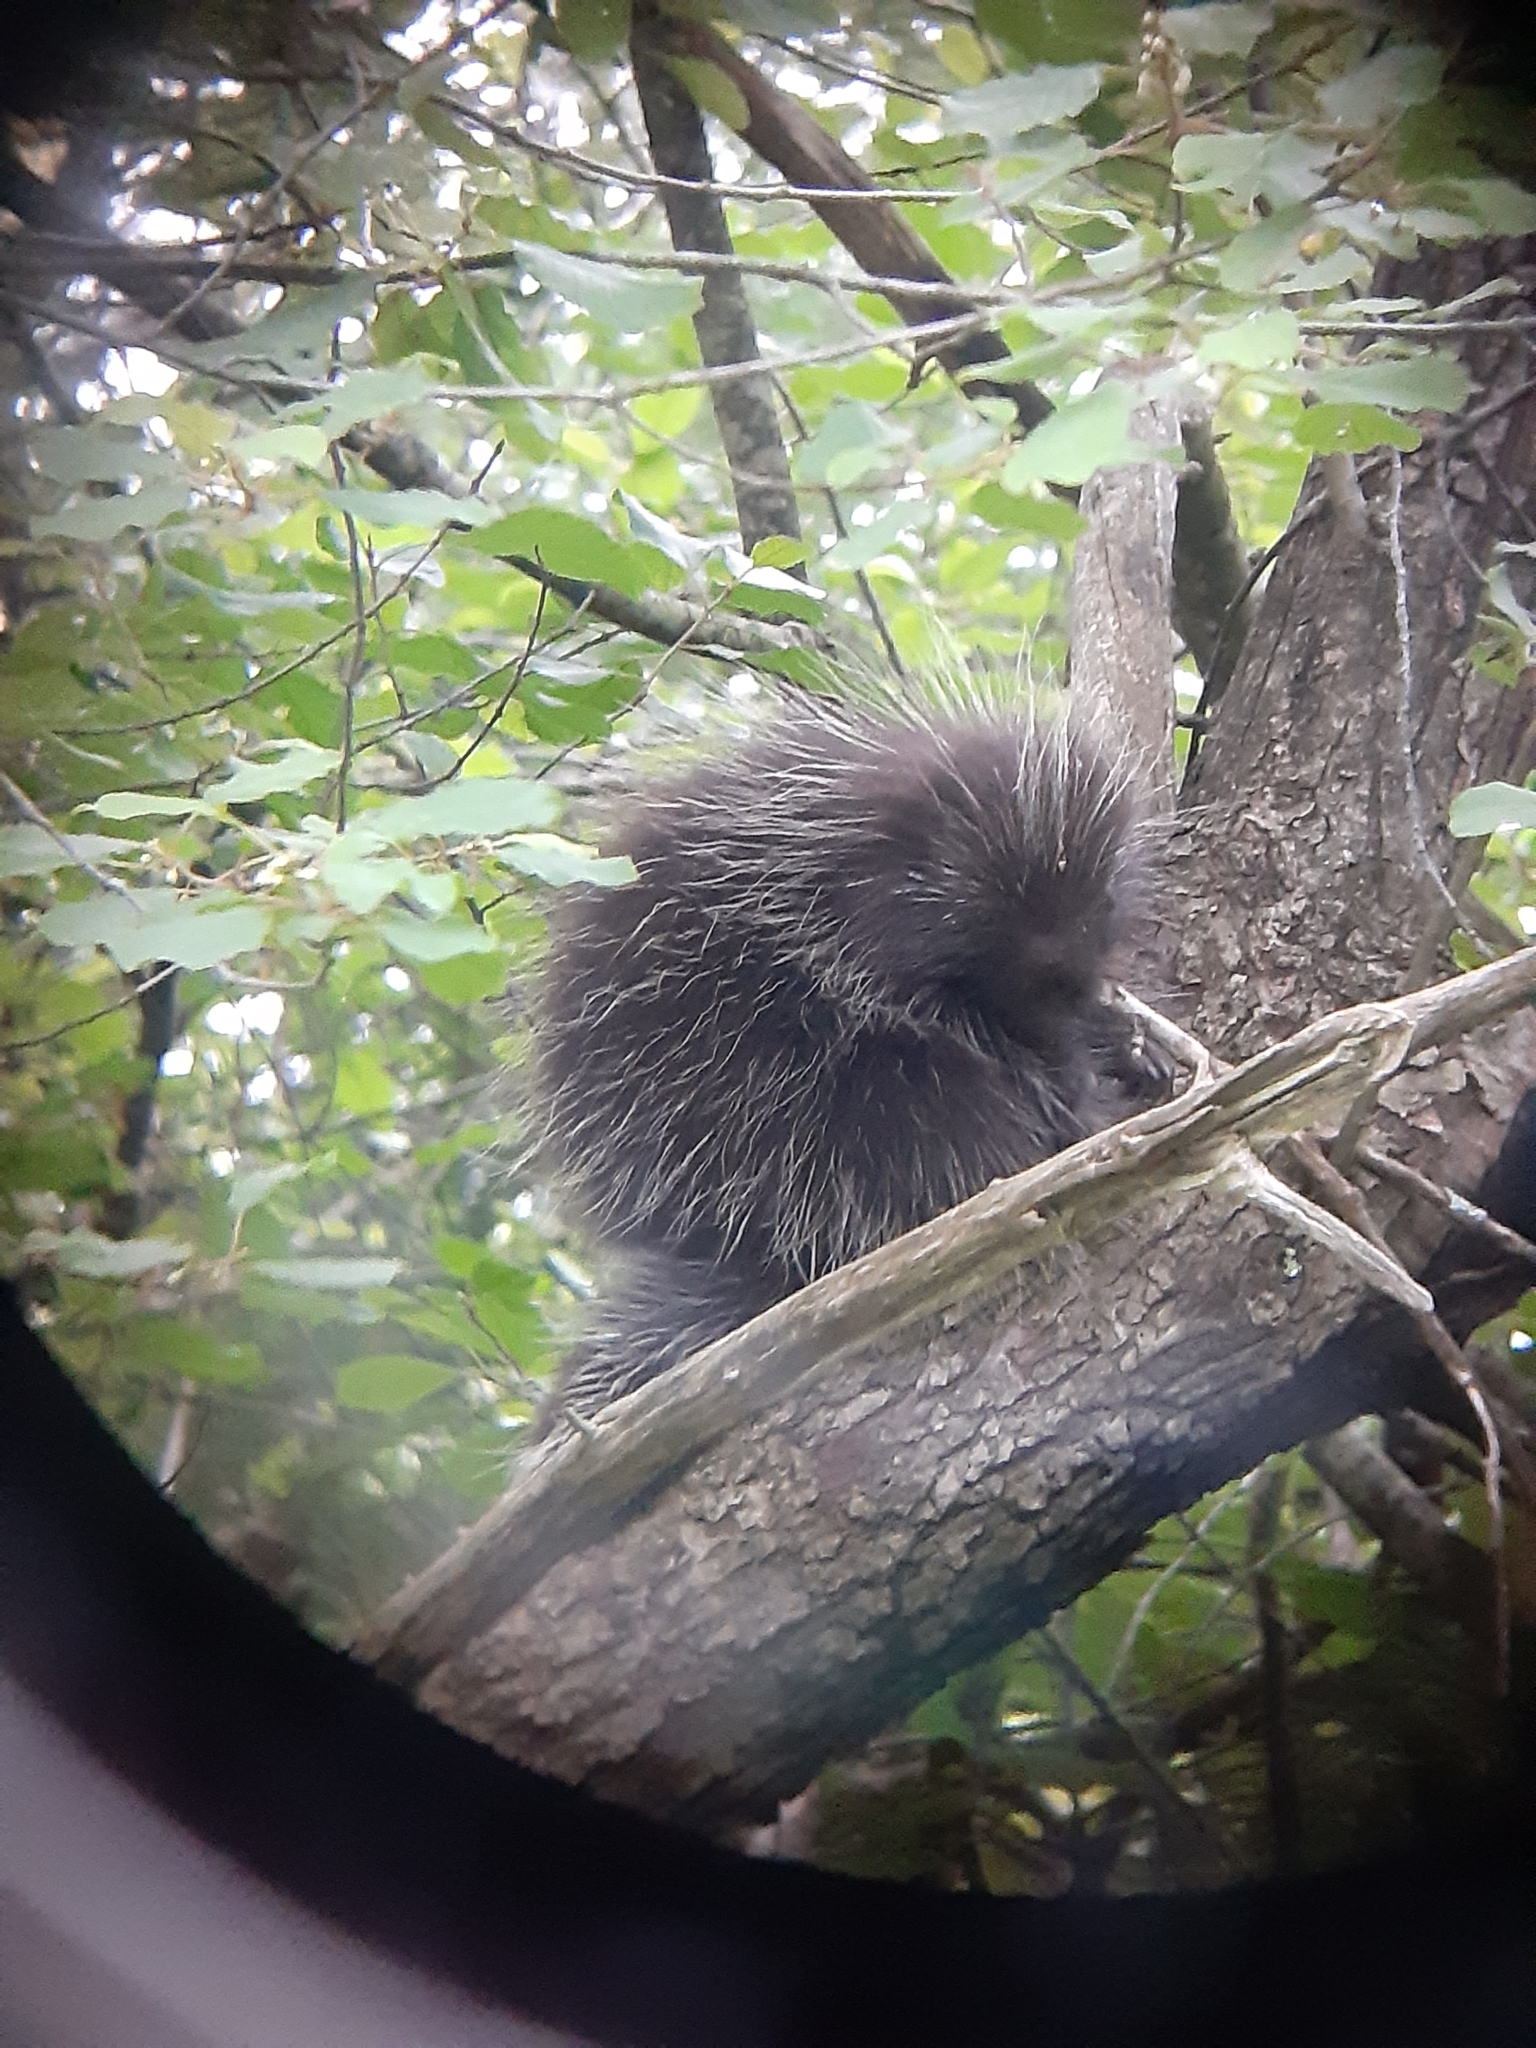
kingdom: Animalia
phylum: Chordata
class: Mammalia
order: Rodentia
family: Erethizontidae
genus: Erethizon
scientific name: Erethizon dorsatus
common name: North american porcupine
